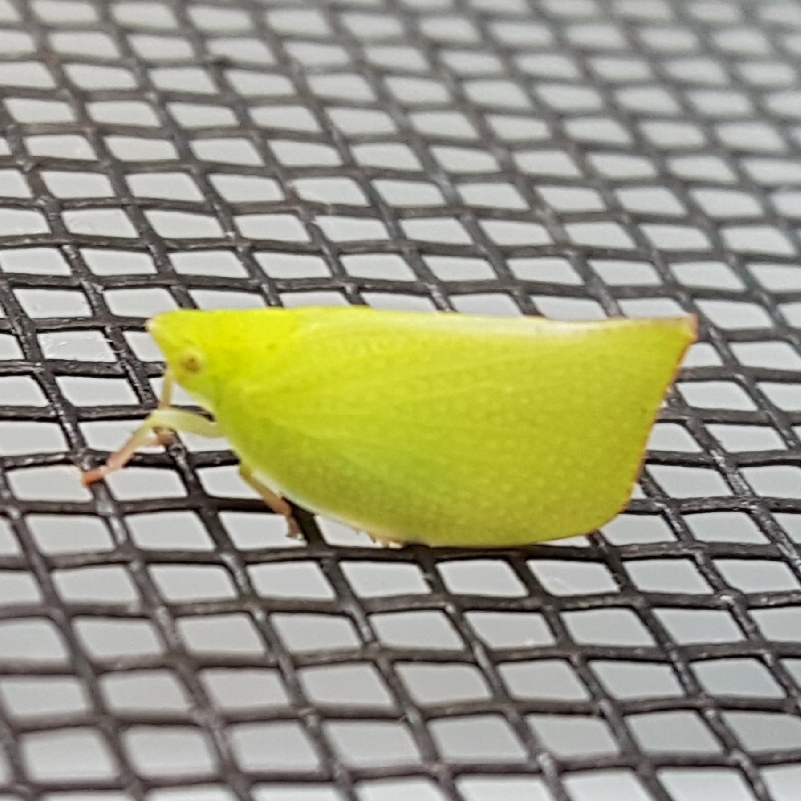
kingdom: Animalia
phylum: Arthropoda
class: Insecta
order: Hemiptera
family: Flatidae
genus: Siphanta
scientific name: Siphanta acuta
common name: Torpedo bug
